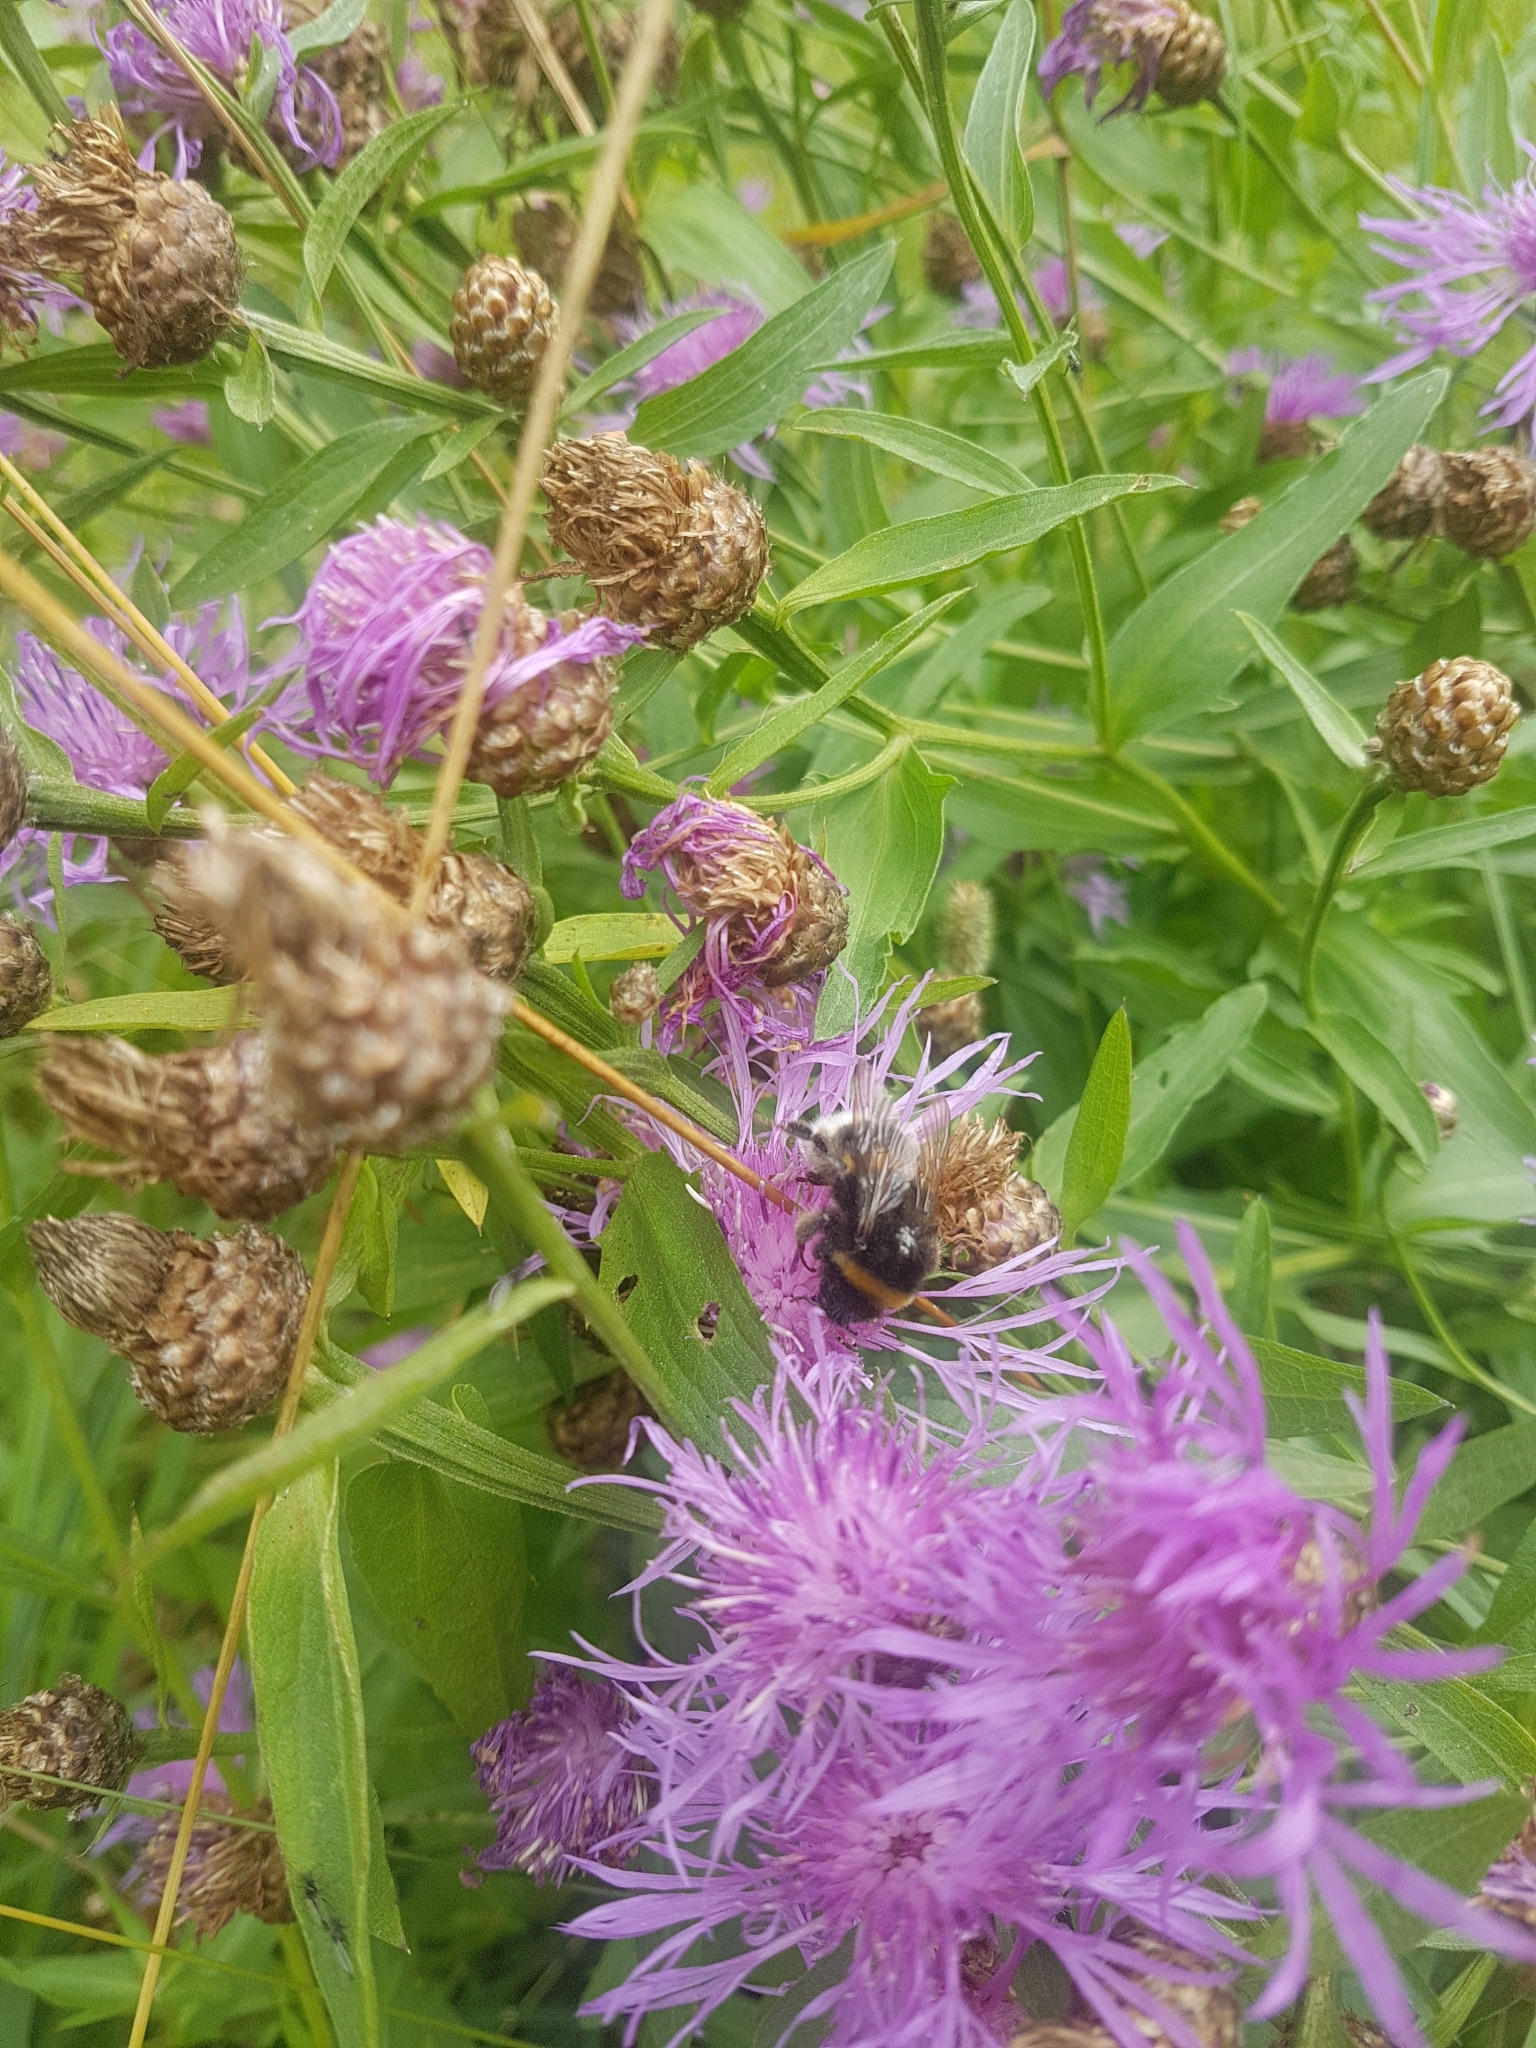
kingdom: Plantae
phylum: Tracheophyta
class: Magnoliopsida
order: Asterales
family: Asteraceae
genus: Centaurea
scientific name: Centaurea jacea
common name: Brown knapweed
